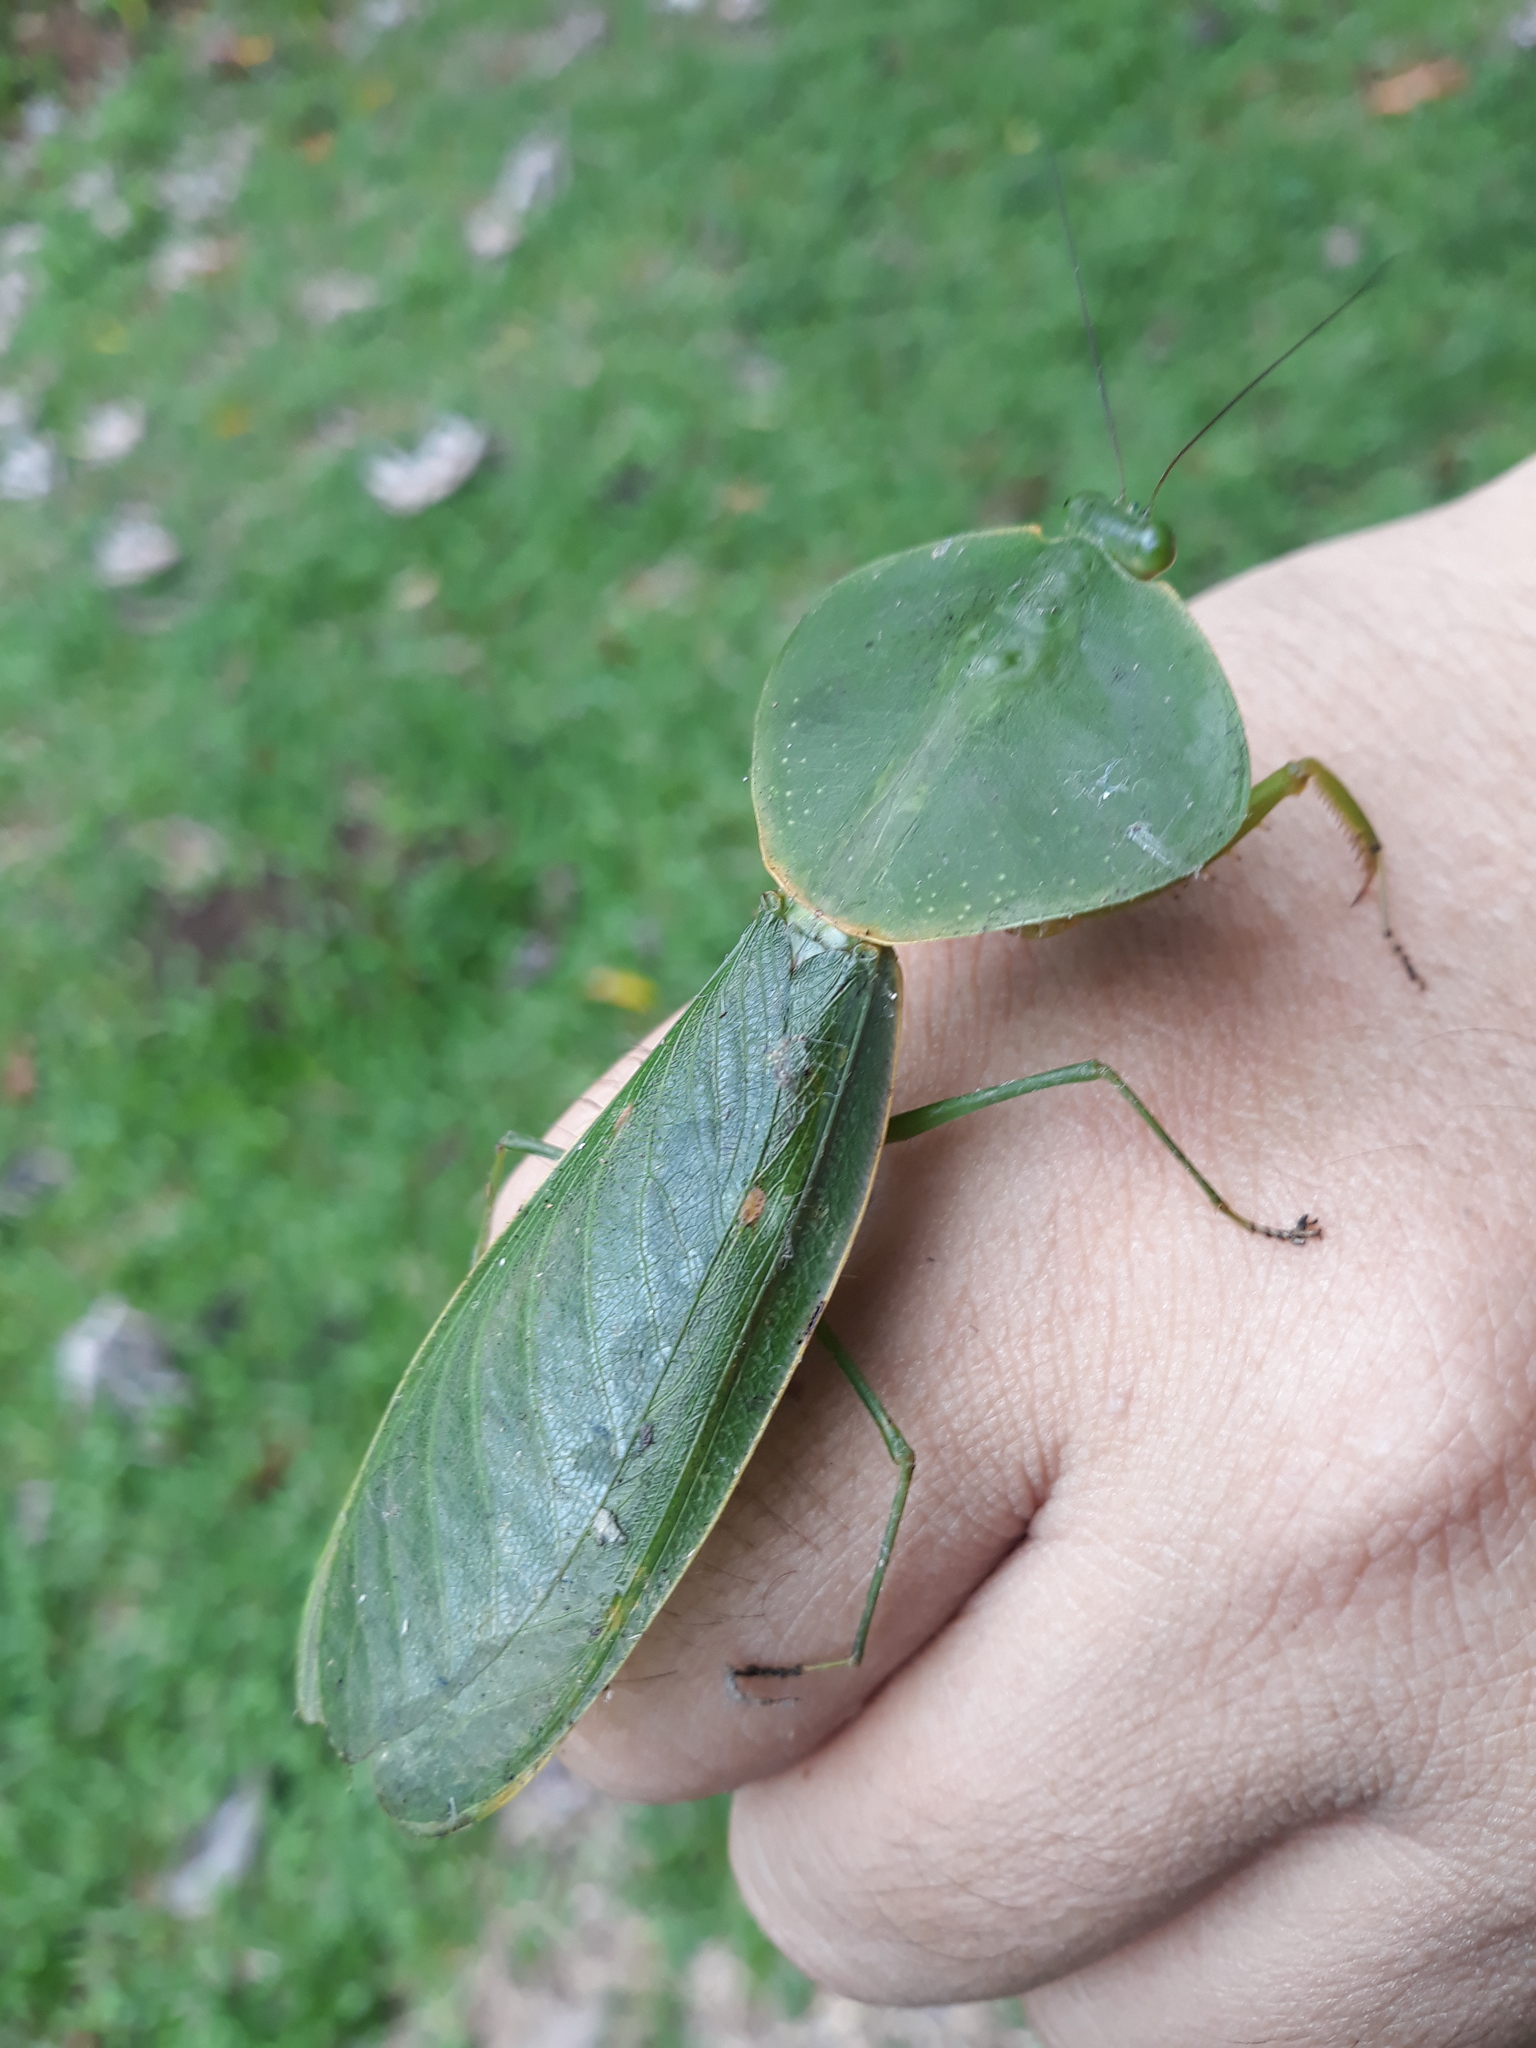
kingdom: Animalia
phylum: Arthropoda
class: Insecta
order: Mantodea
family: Mantidae
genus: Choeradodis
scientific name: Choeradodis rhombicollis
